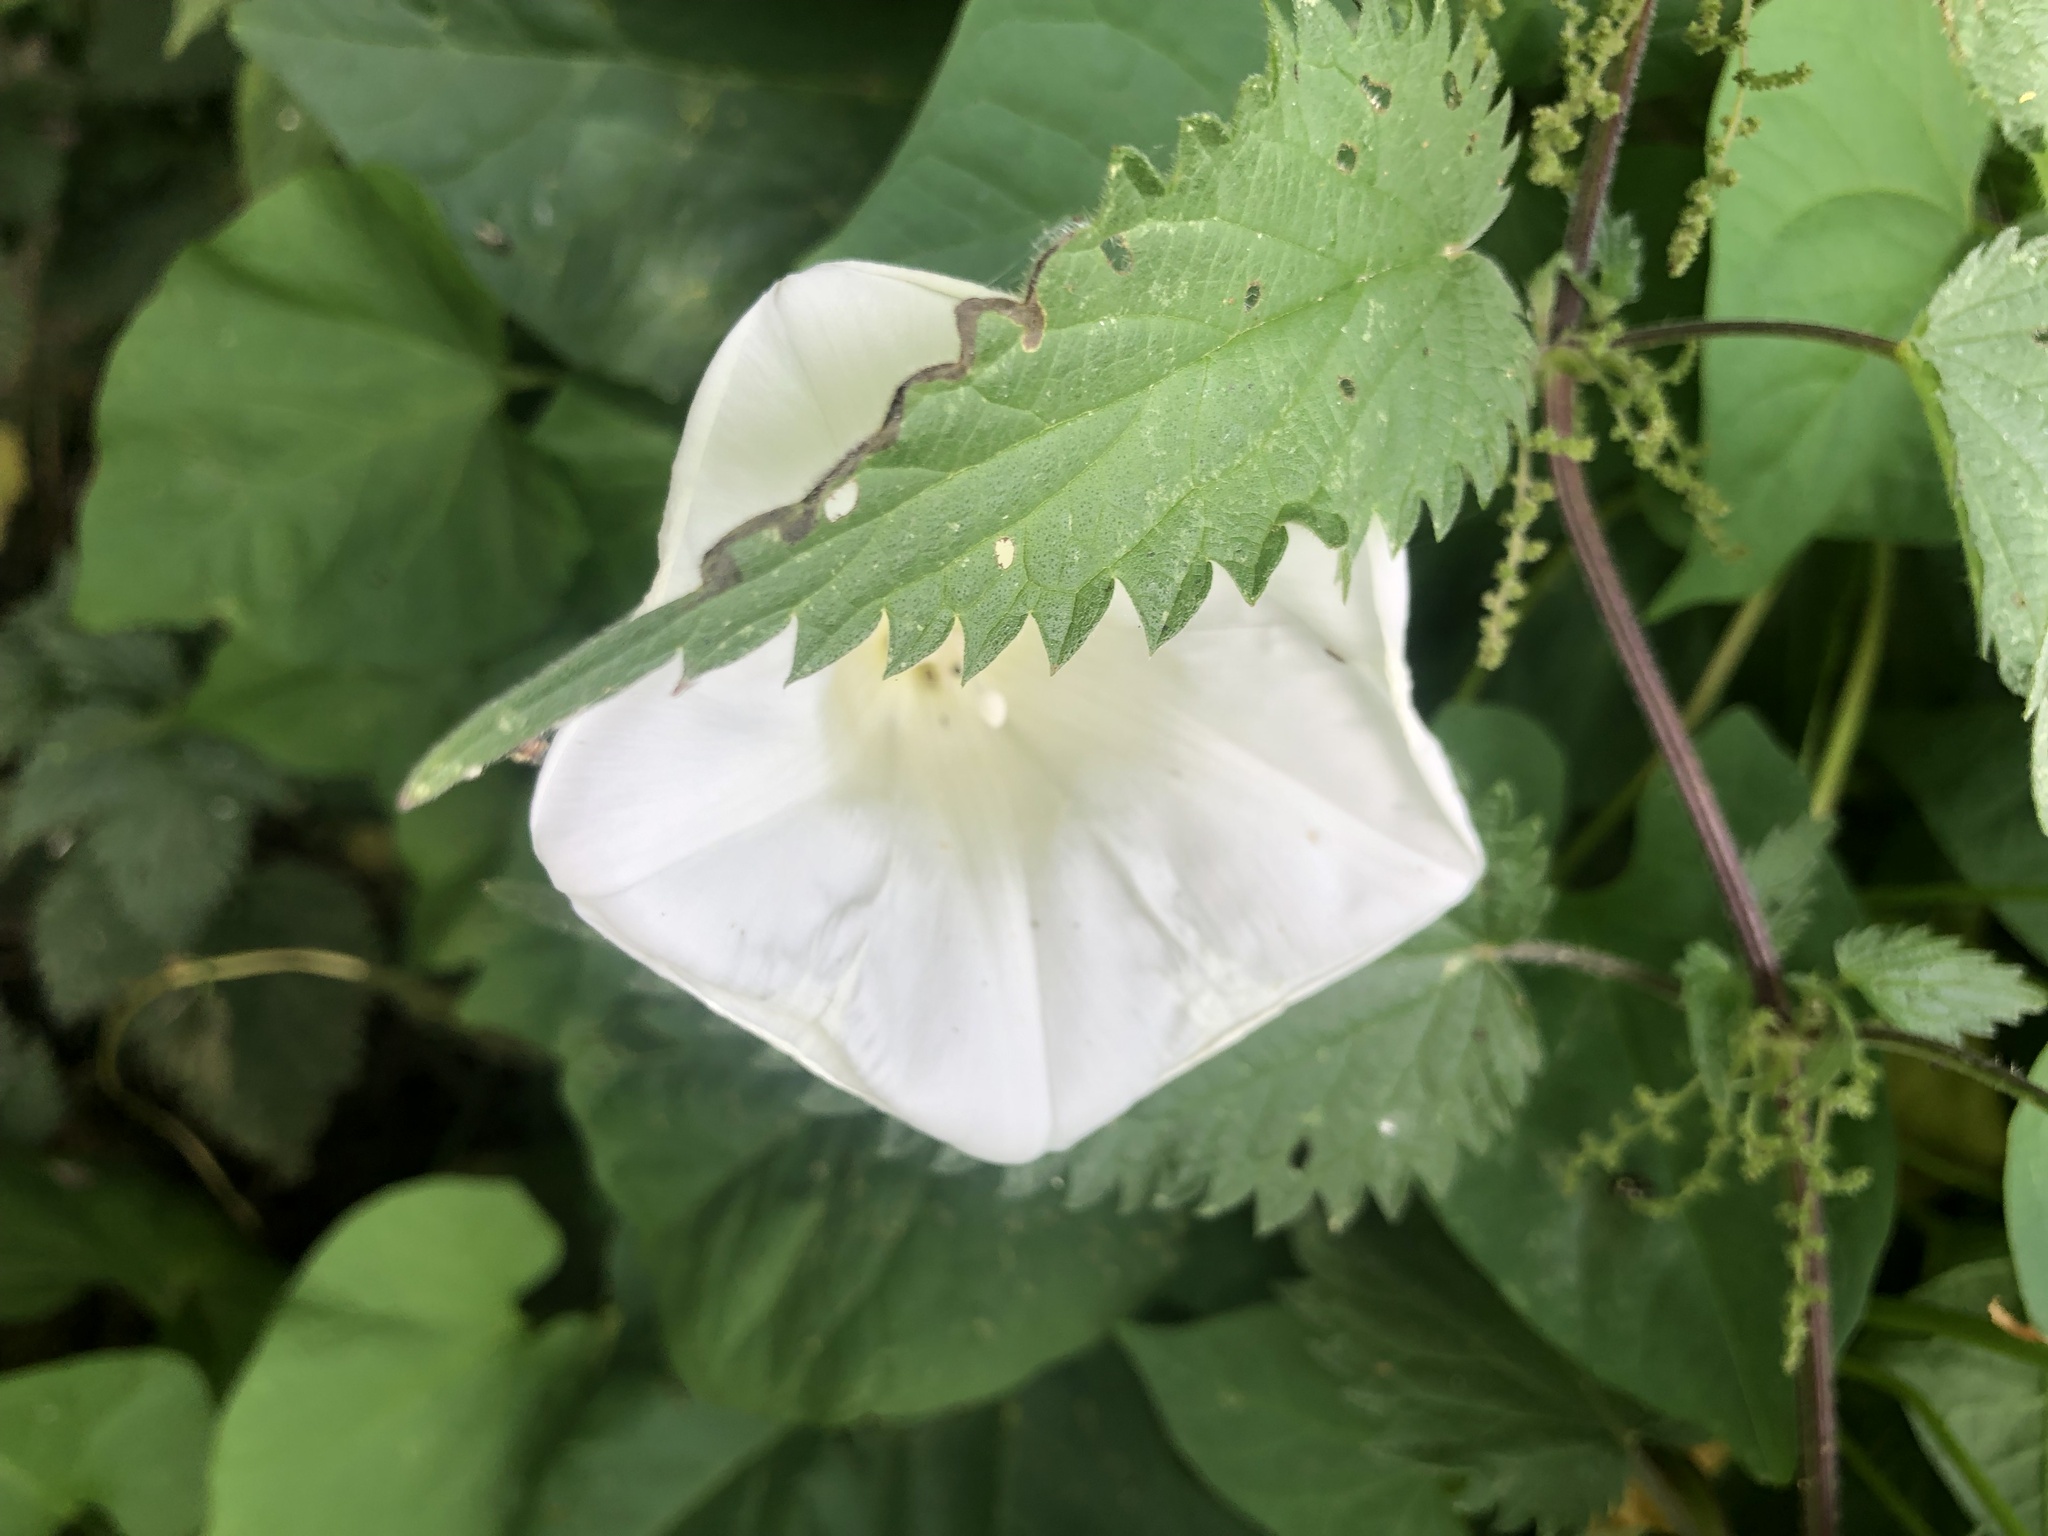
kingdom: Plantae
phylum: Tracheophyta
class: Magnoliopsida
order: Solanales
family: Convolvulaceae
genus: Calystegia
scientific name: Calystegia silvatica
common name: Large bindweed
